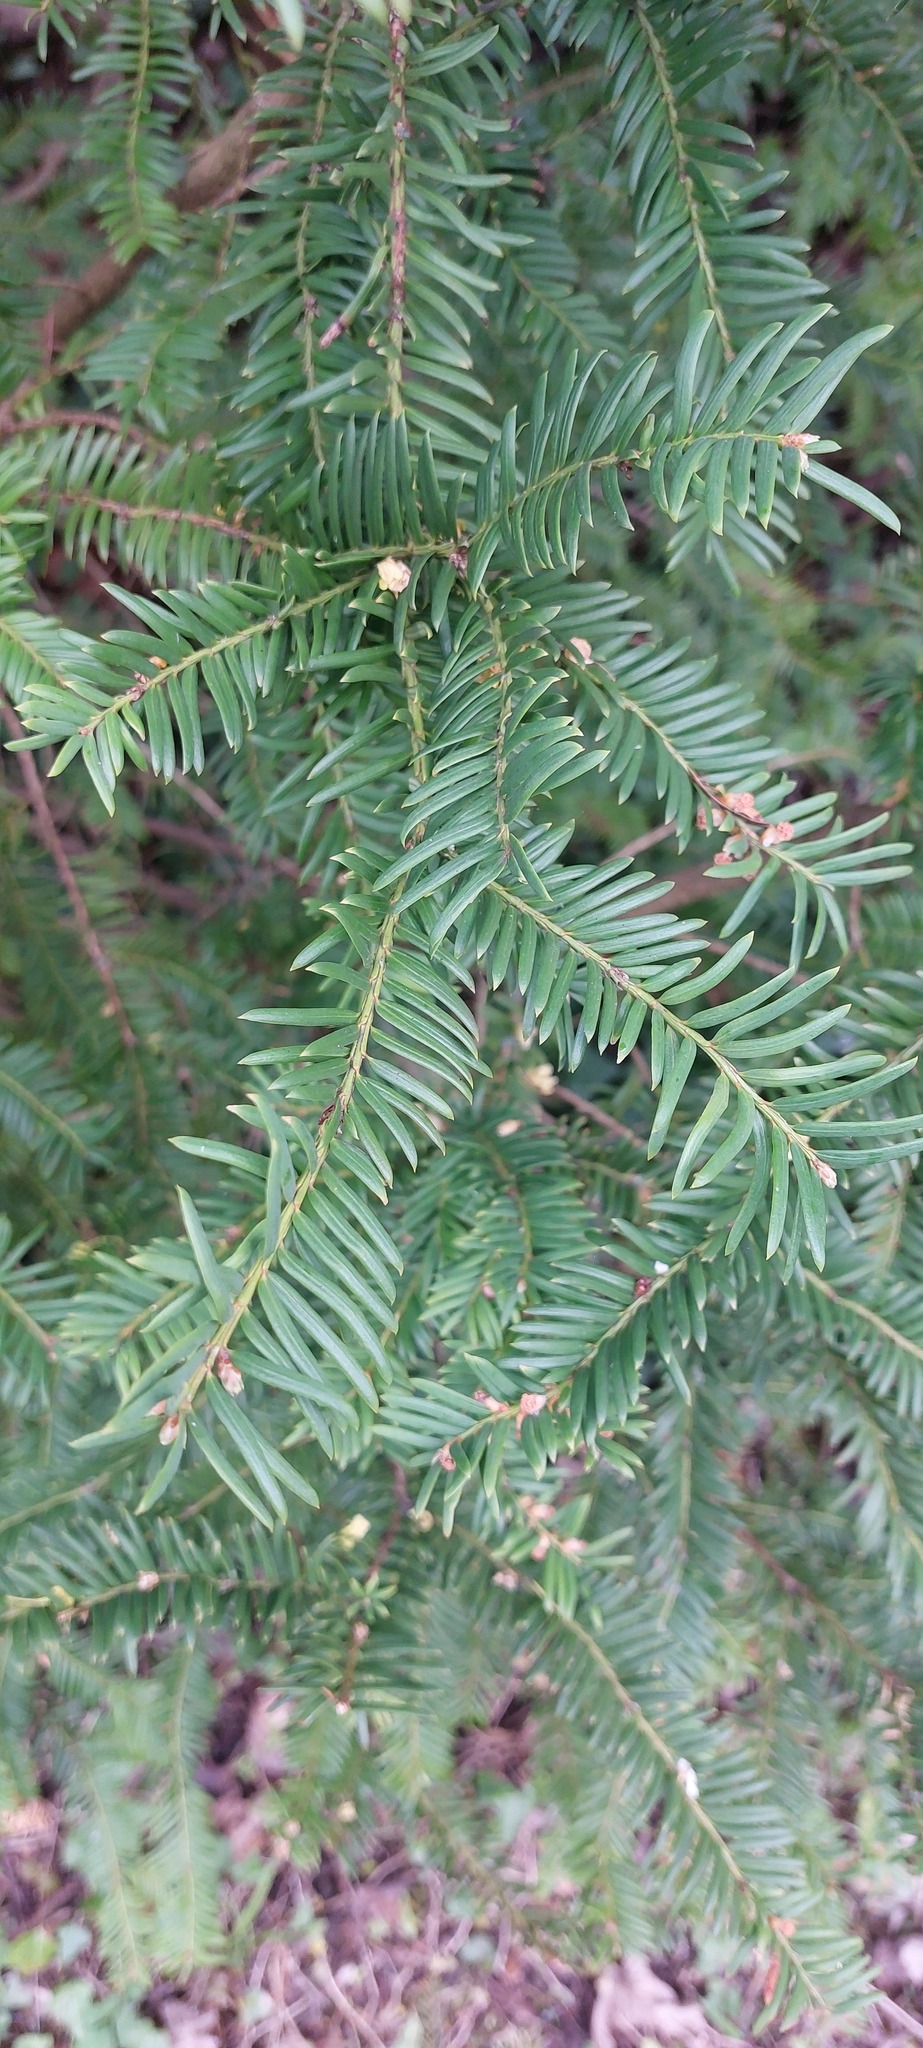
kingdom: Plantae
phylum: Tracheophyta
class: Pinopsida
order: Pinales
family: Taxaceae
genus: Taxus
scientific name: Taxus baccata
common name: Yew
